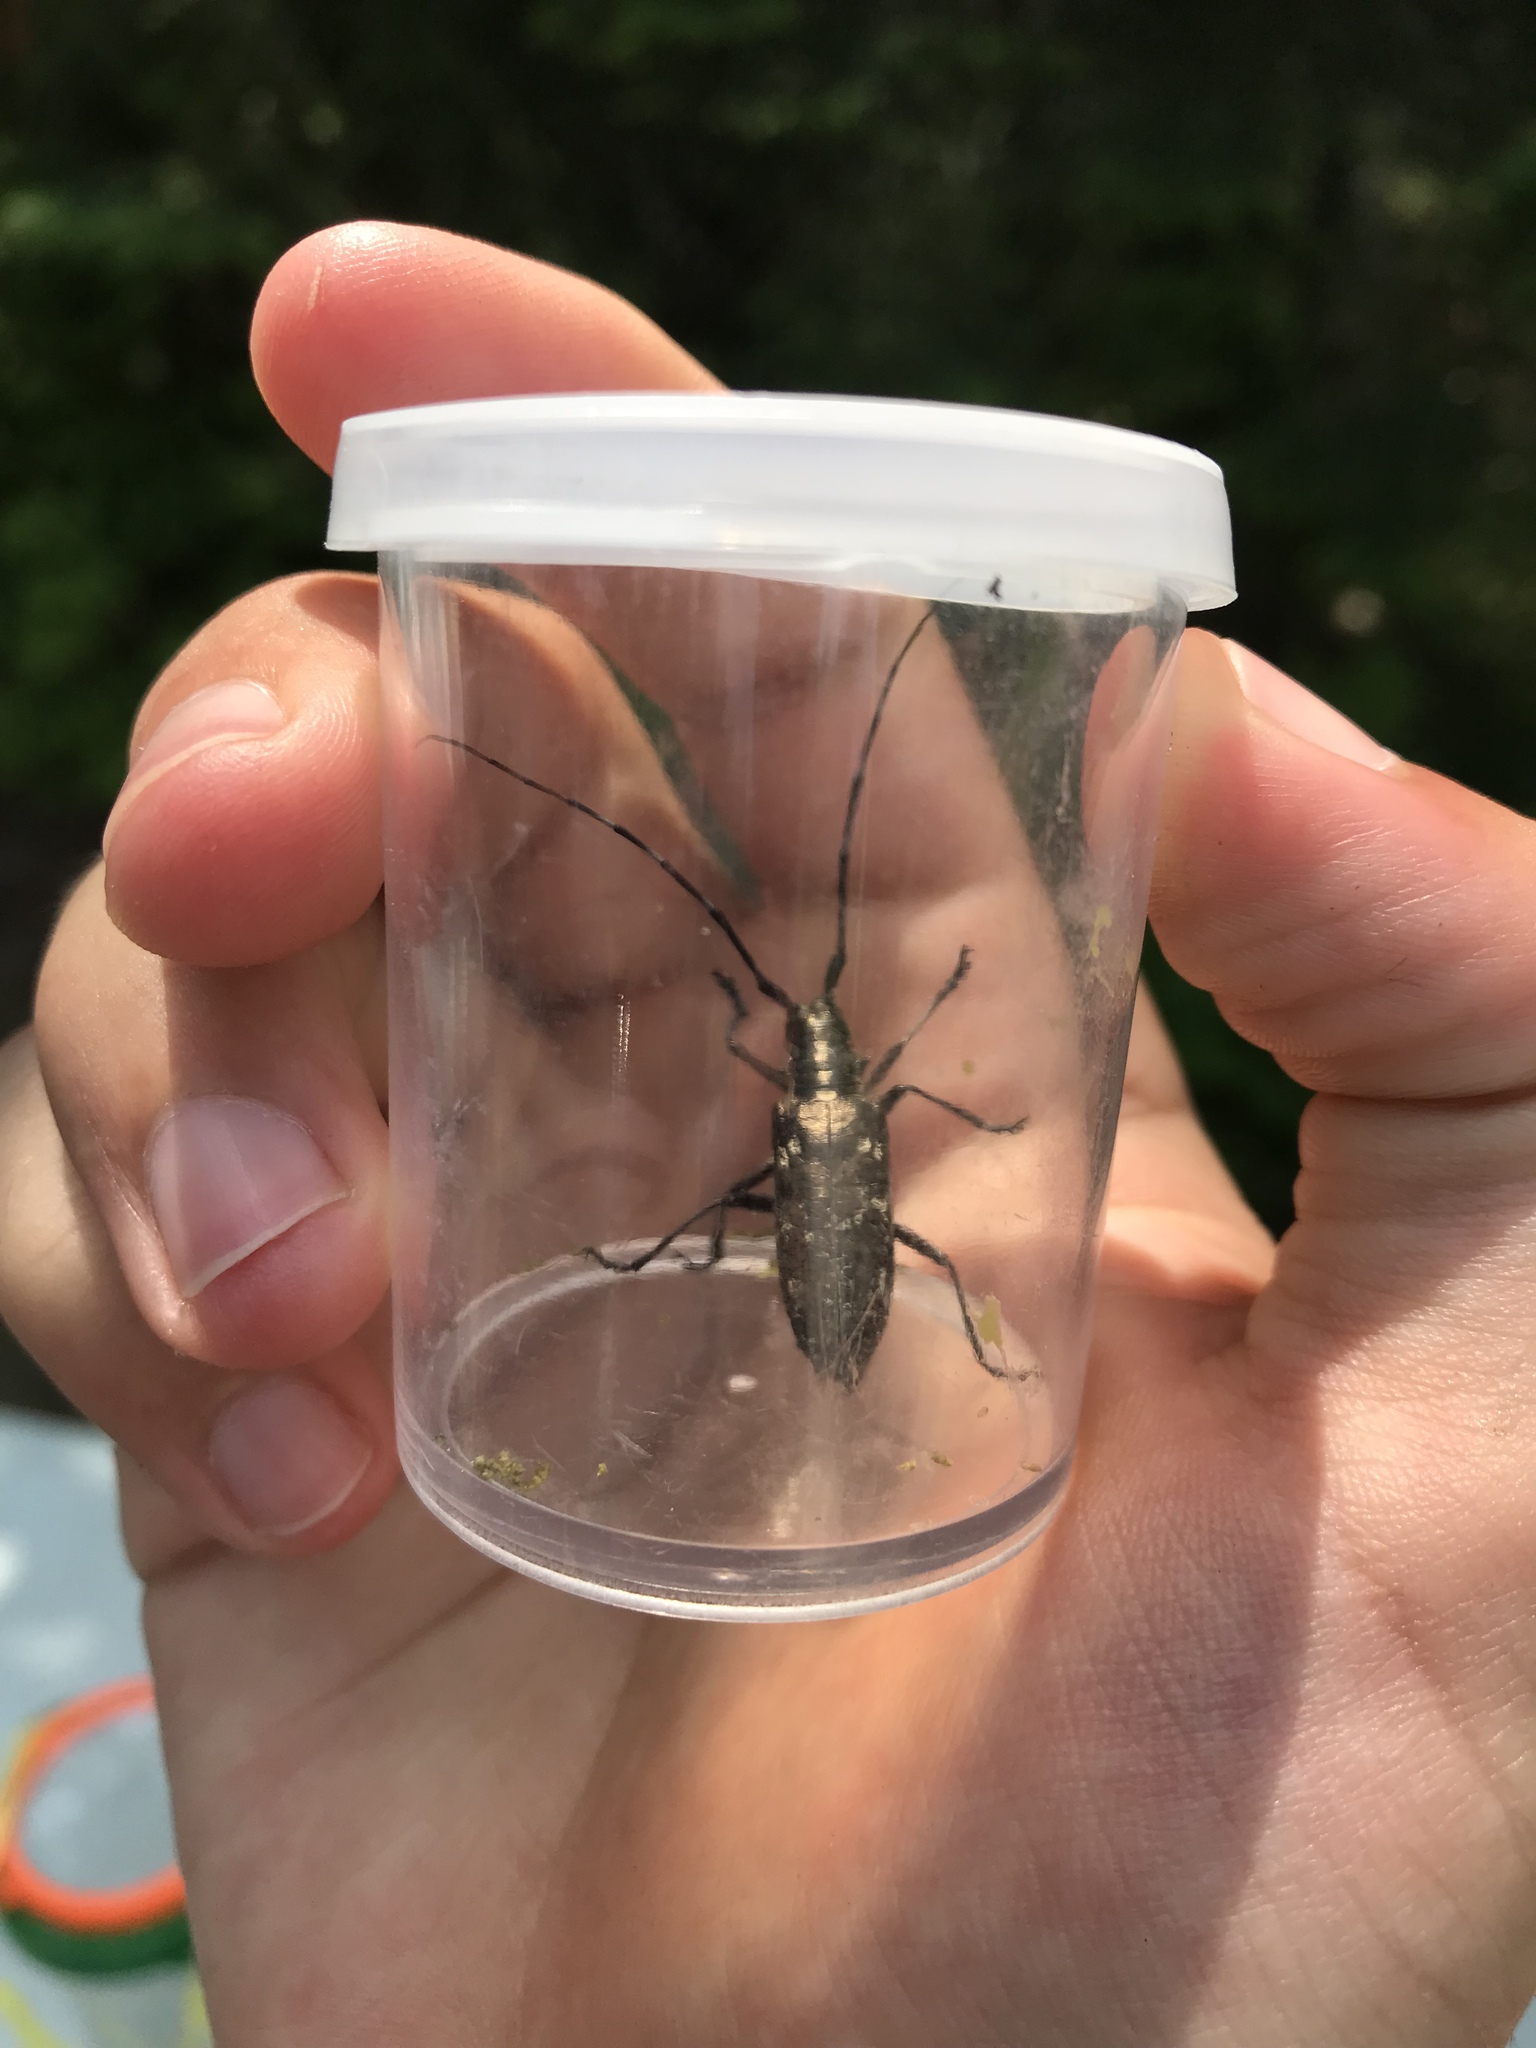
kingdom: Animalia
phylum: Arthropoda
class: Insecta
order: Coleoptera
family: Cerambycidae
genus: Monochamus
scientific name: Monochamus scutellatus
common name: White-spotted sawyer beetle
